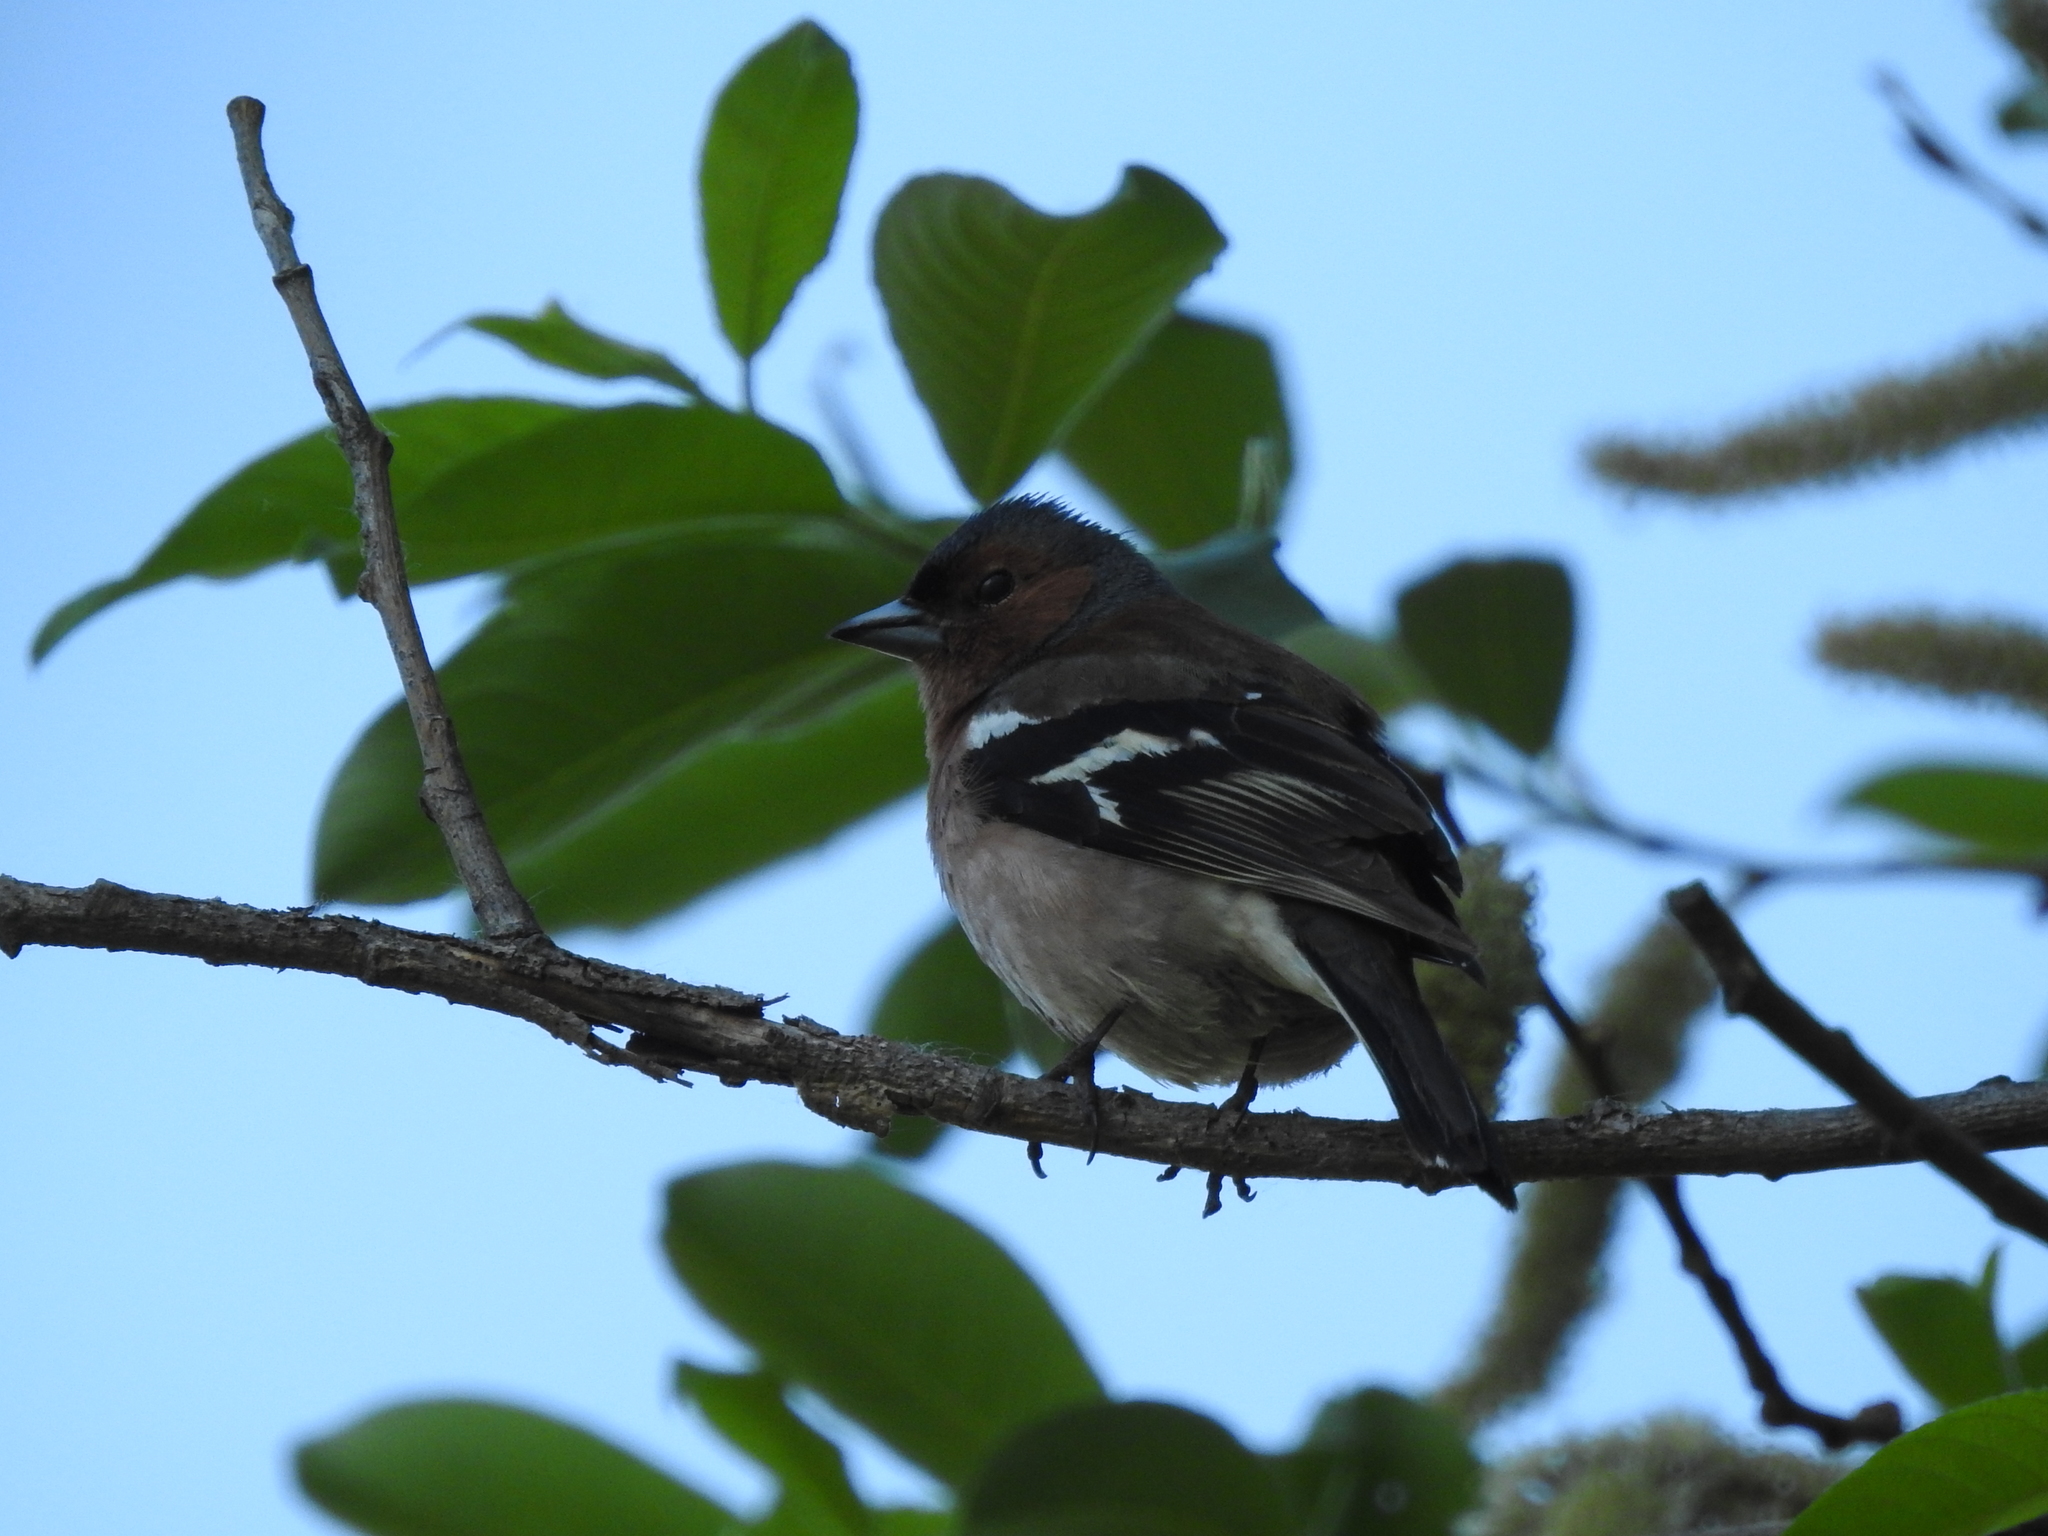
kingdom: Animalia
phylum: Chordata
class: Aves
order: Passeriformes
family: Fringillidae
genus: Fringilla
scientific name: Fringilla coelebs
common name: Common chaffinch
